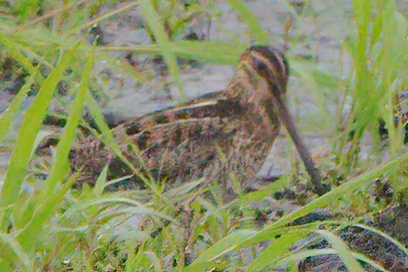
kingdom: Animalia
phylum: Chordata
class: Aves
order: Charadriiformes
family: Scolopacidae
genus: Gallinago
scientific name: Gallinago delicata
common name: Wilson's snipe
